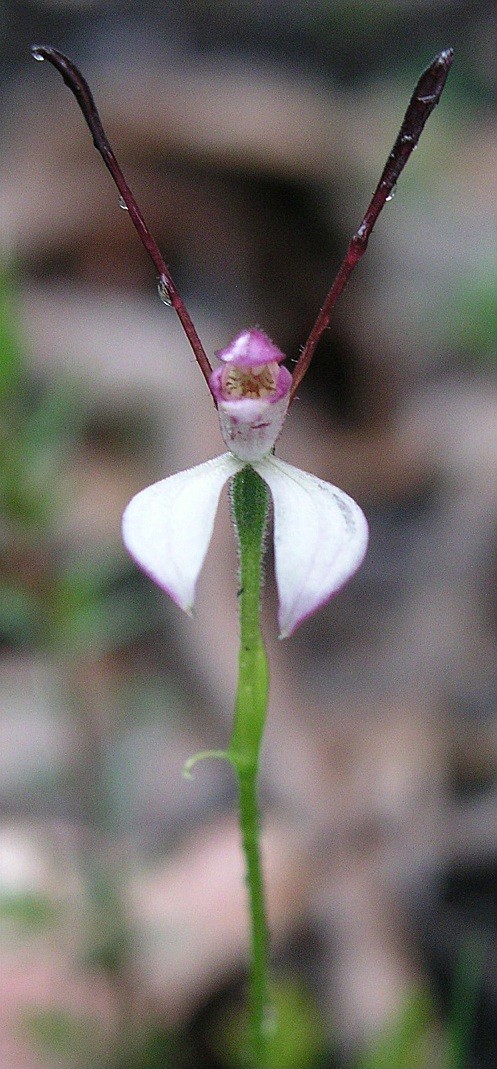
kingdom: Plantae
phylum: Tracheophyta
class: Liliopsida
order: Asparagales
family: Orchidaceae
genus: Leptoceras
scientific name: Leptoceras menziesii
